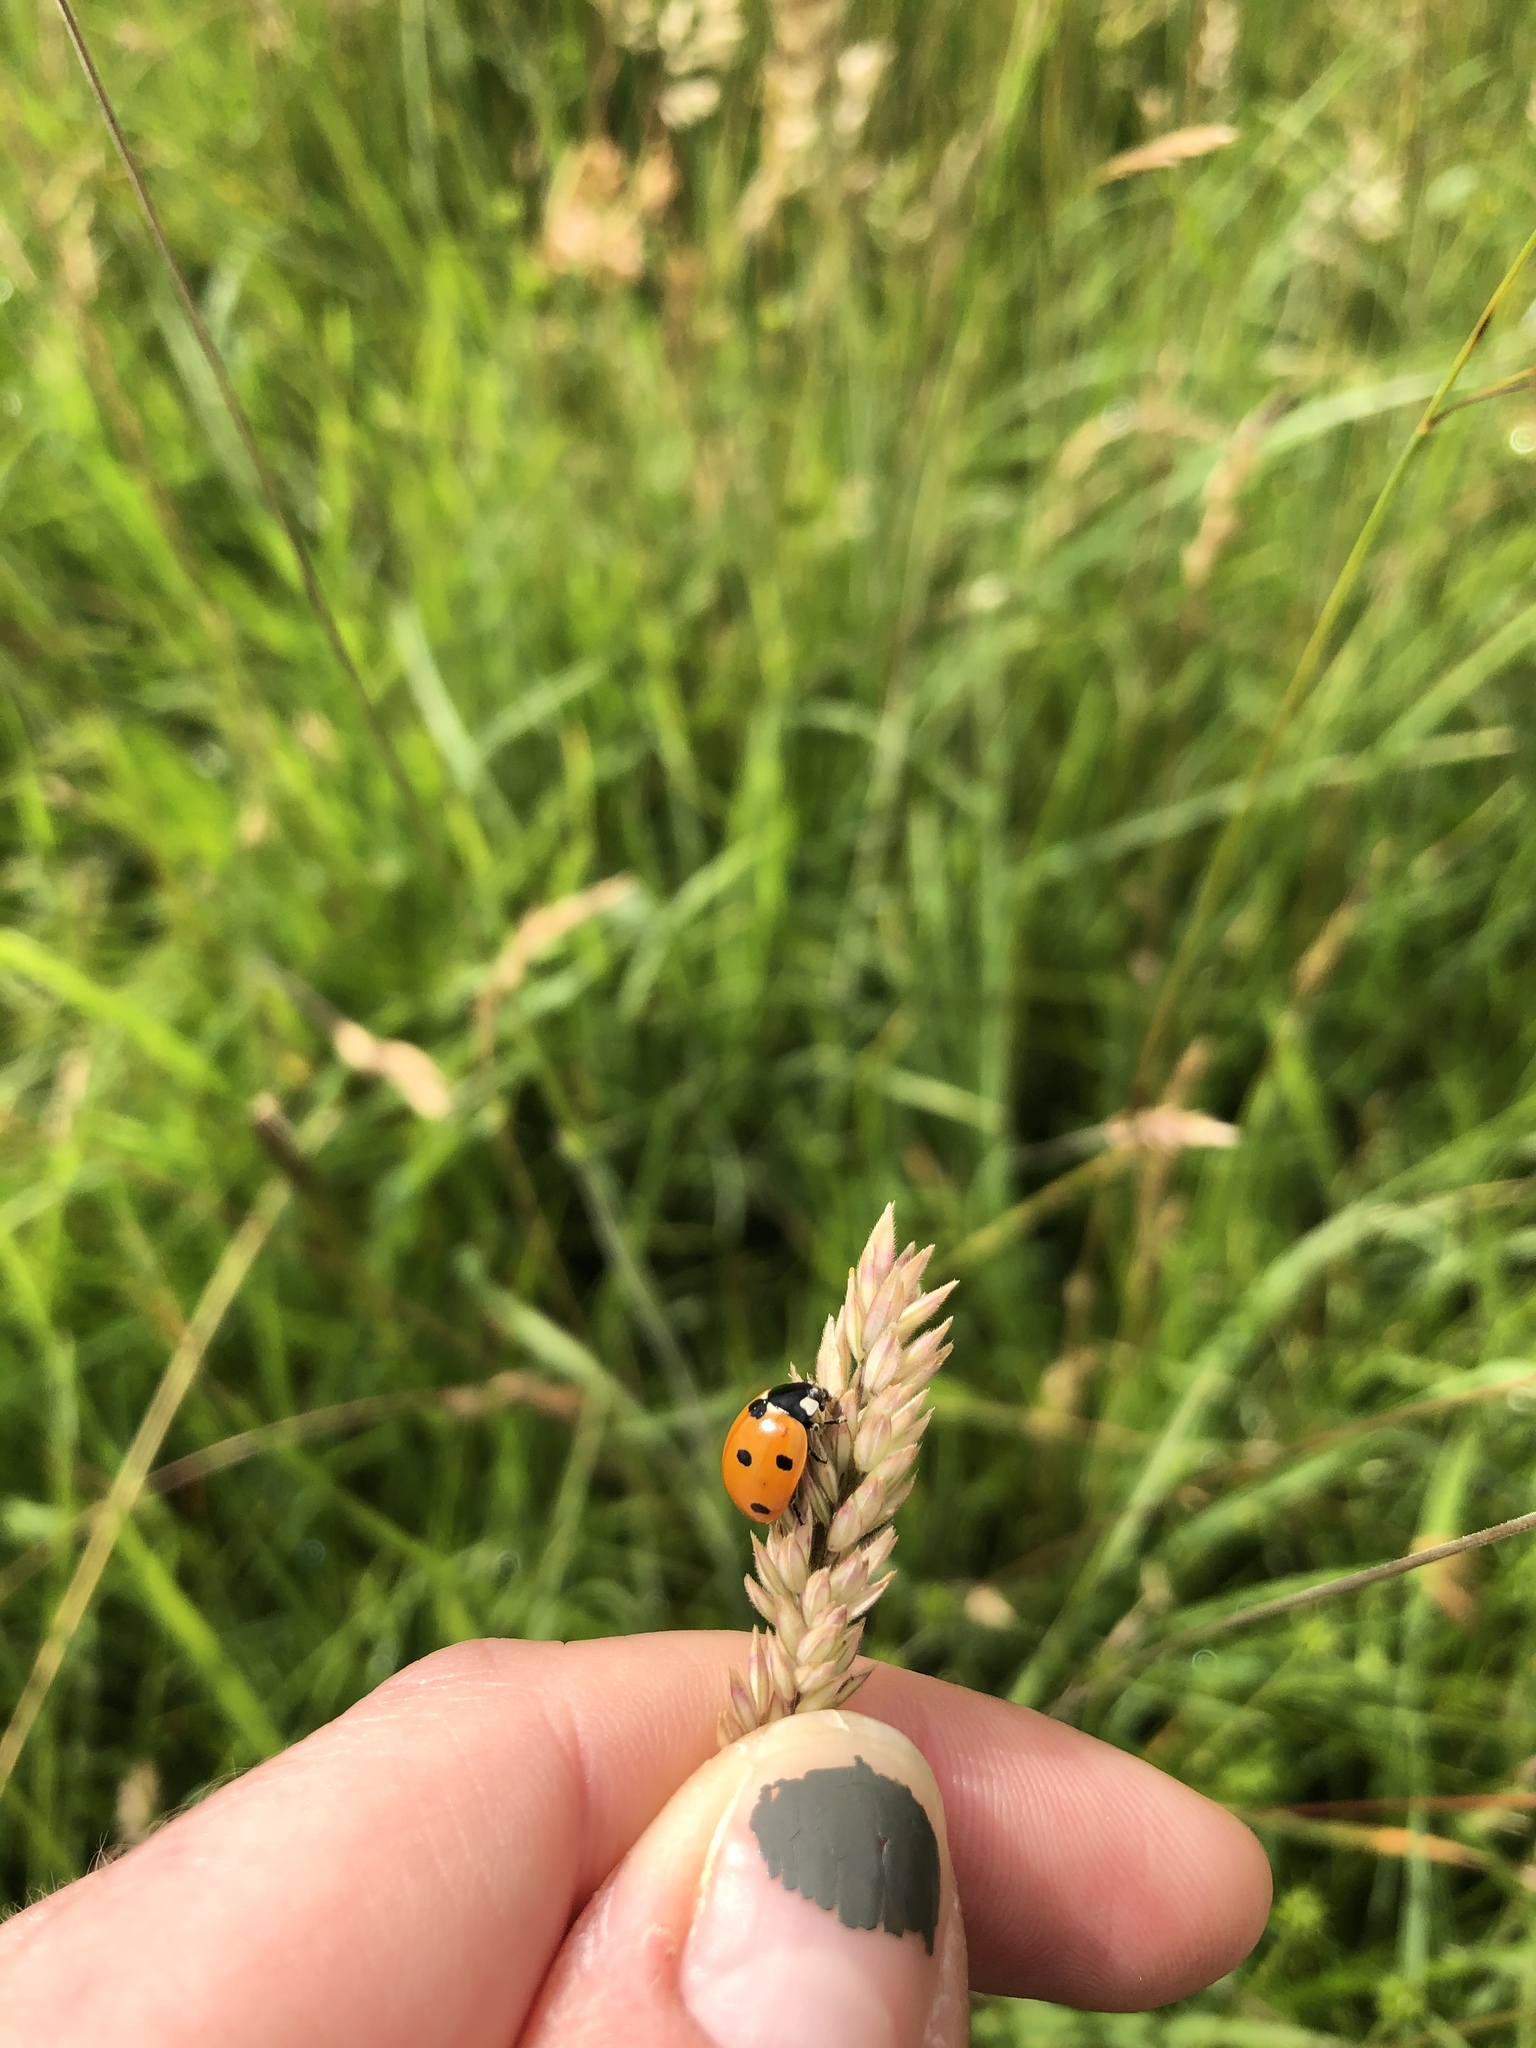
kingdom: Animalia
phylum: Arthropoda
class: Insecta
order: Coleoptera
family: Coccinellidae
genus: Coccinella
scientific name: Coccinella septempunctata
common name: Sevenspotted lady beetle
